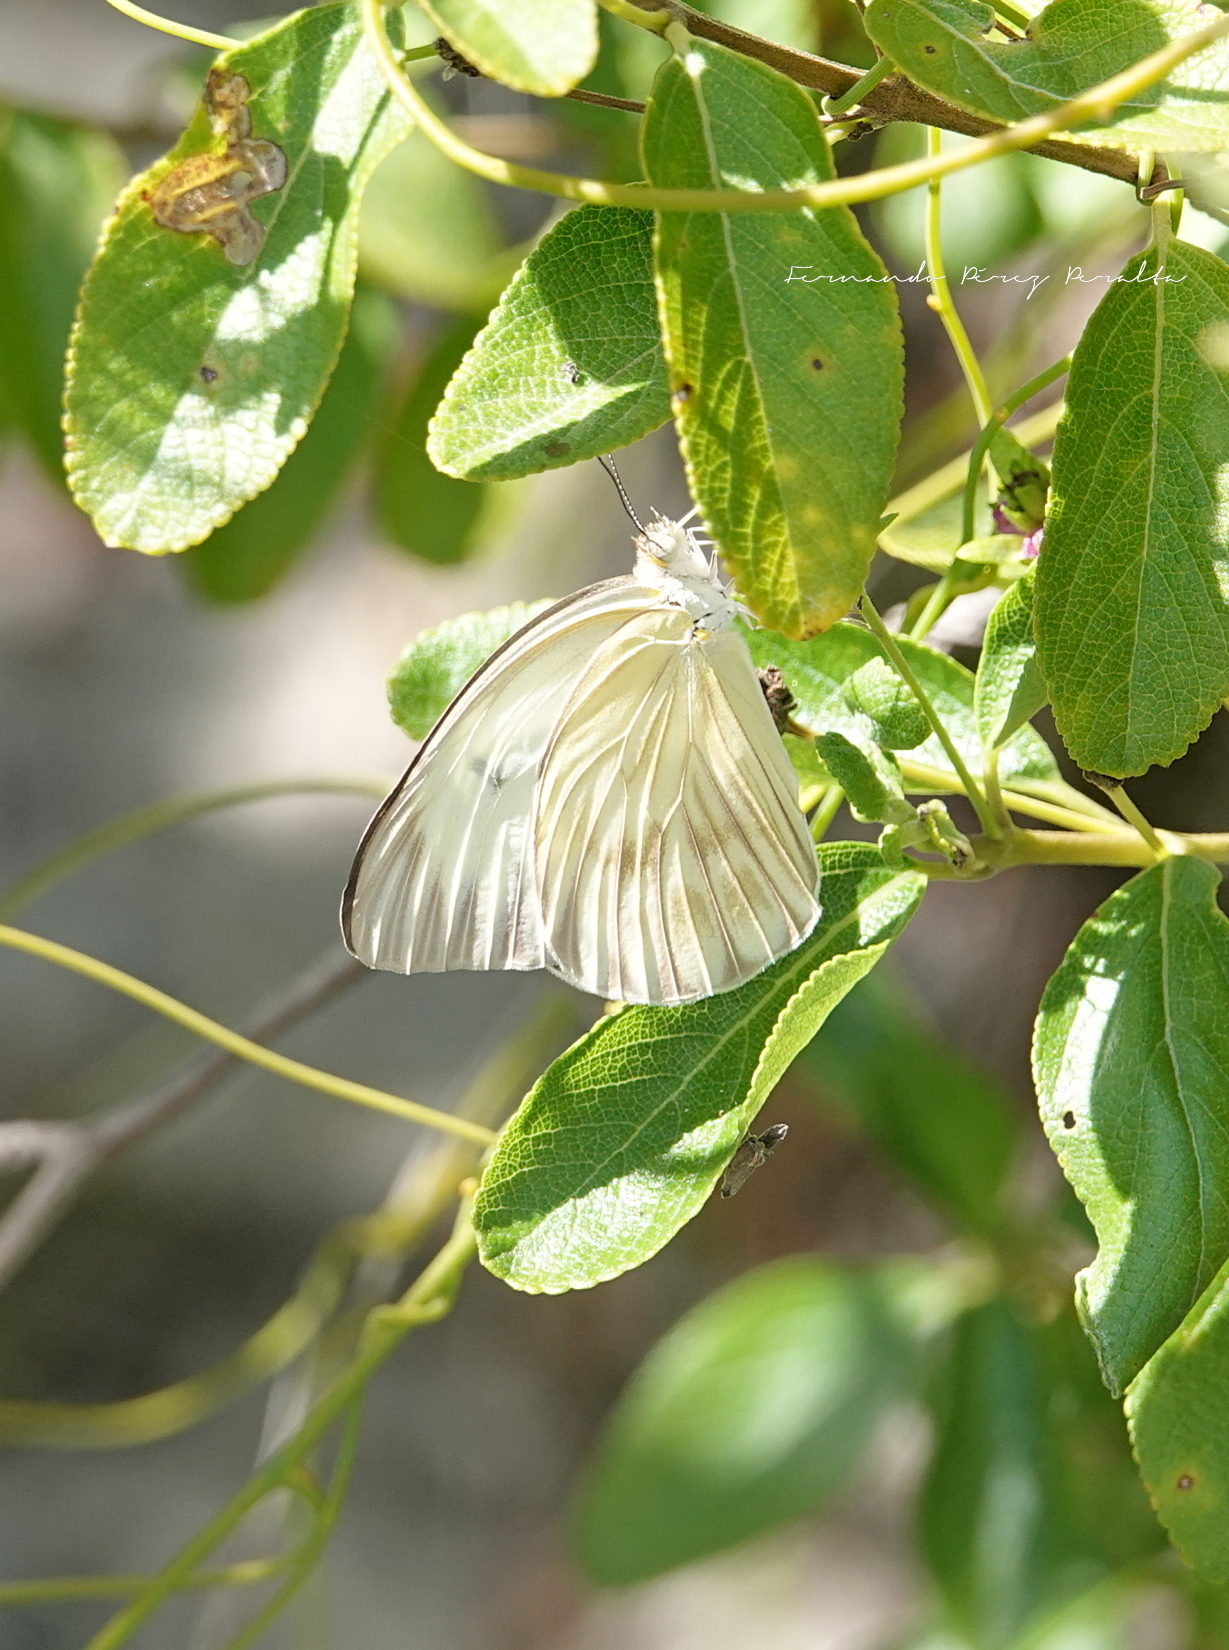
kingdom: Animalia
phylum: Arthropoda
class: Insecta
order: Lepidoptera
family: Pieridae
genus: Ascia
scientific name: Ascia monuste
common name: Great southern white
